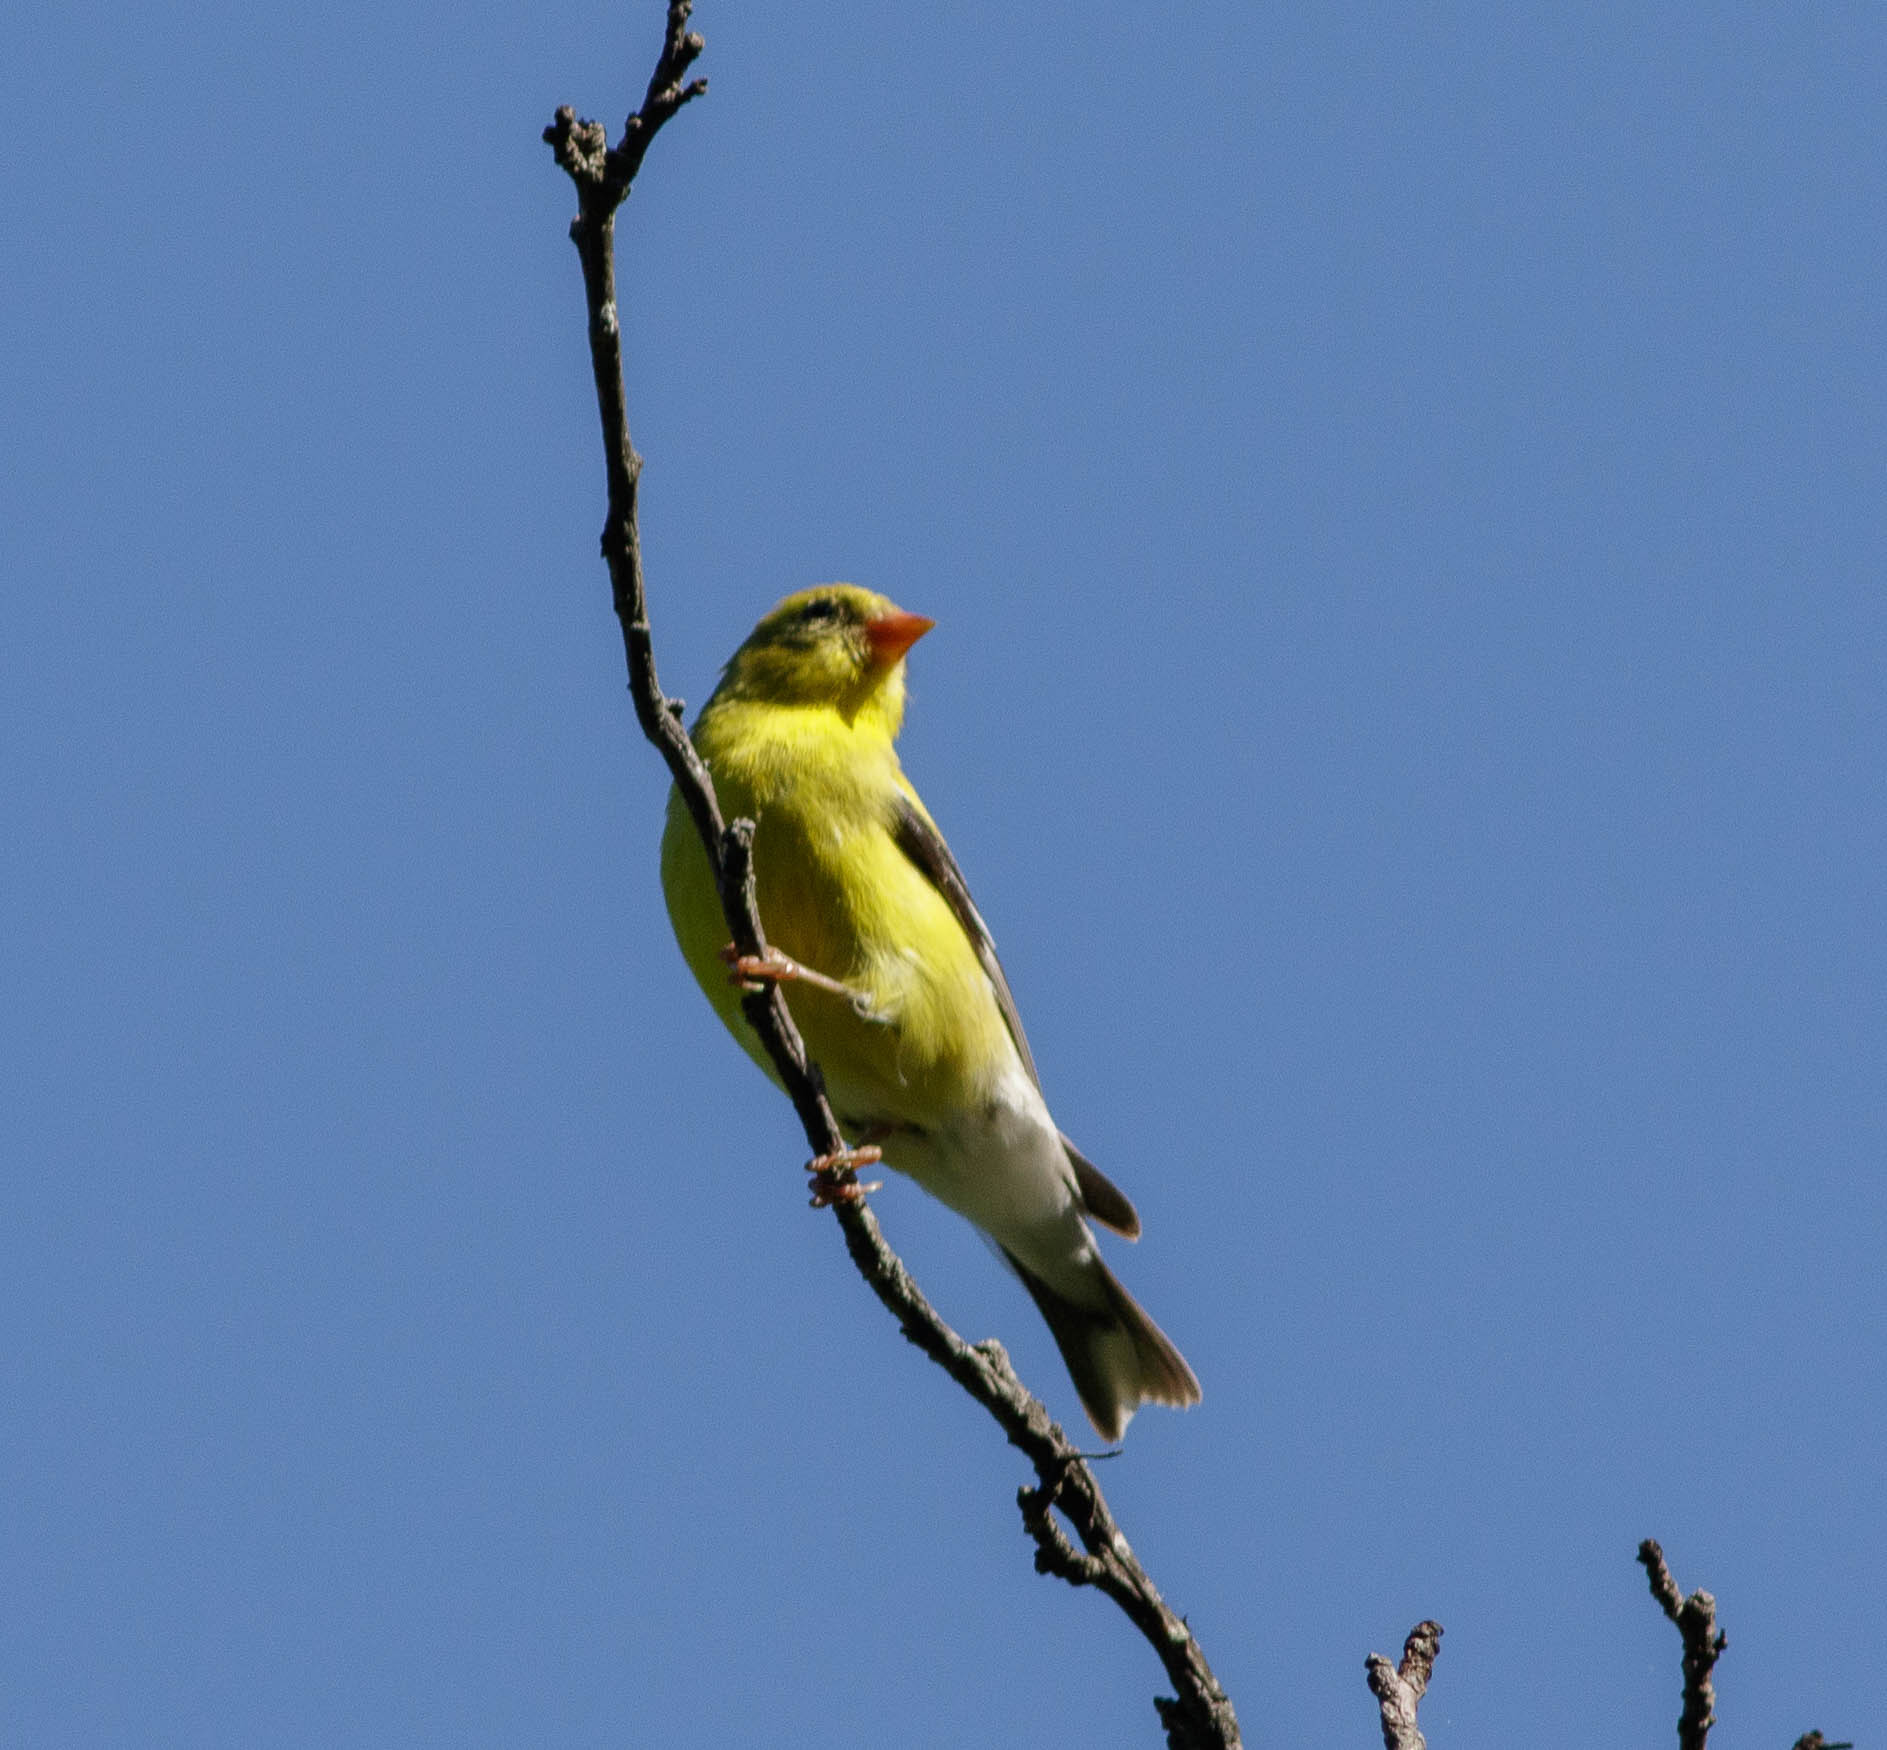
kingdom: Animalia
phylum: Chordata
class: Aves
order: Passeriformes
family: Fringillidae
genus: Spinus
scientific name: Spinus tristis
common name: American goldfinch
